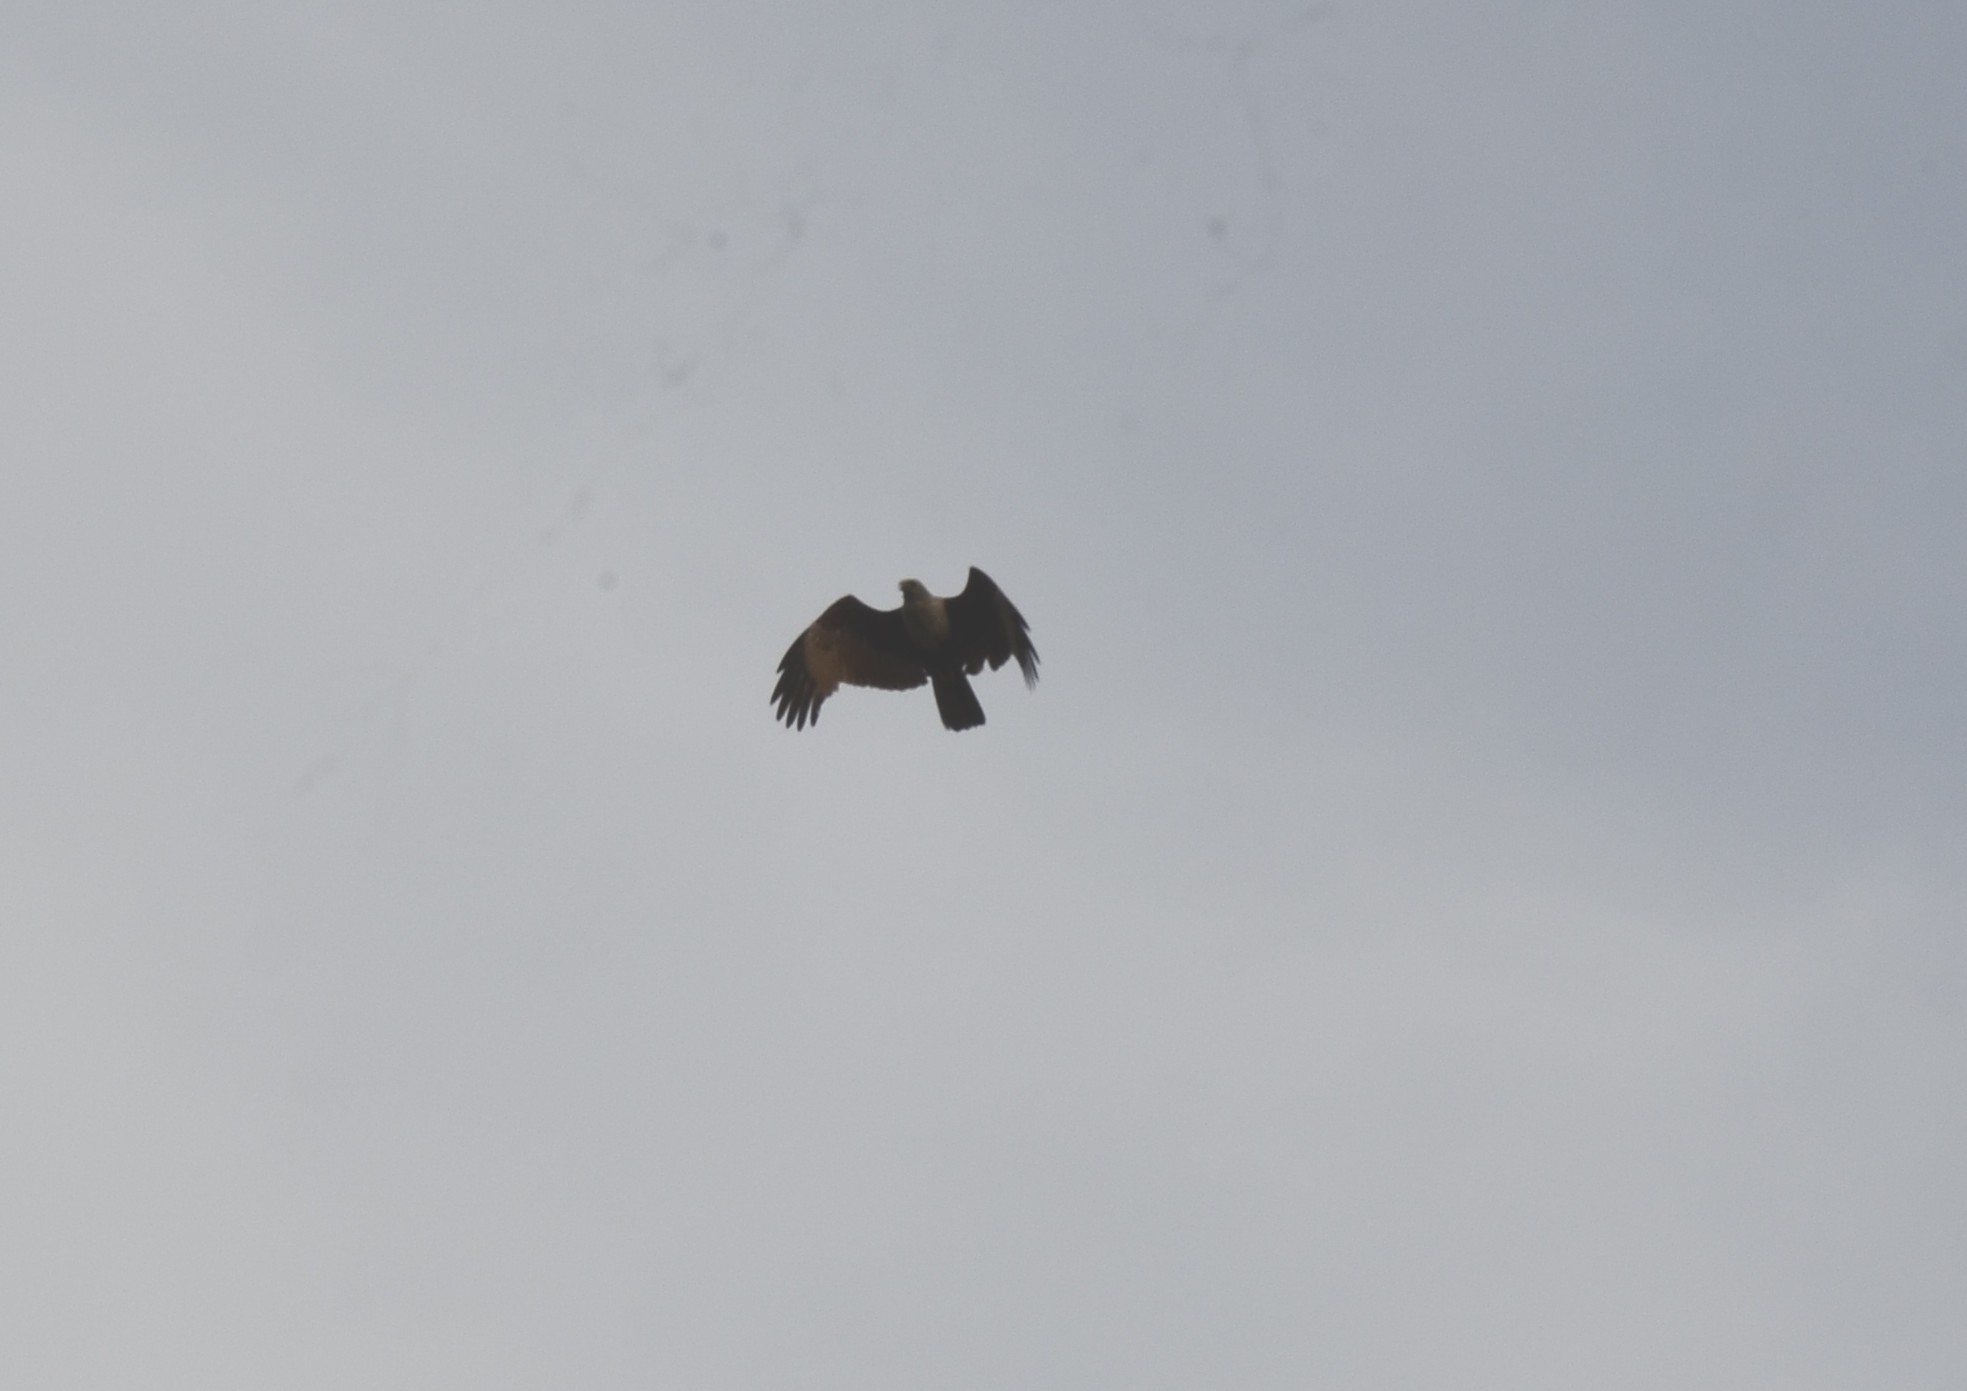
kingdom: Animalia
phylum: Chordata
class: Aves
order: Accipitriformes
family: Accipitridae
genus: Haliastur
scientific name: Haliastur indus
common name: Brahminy kite
